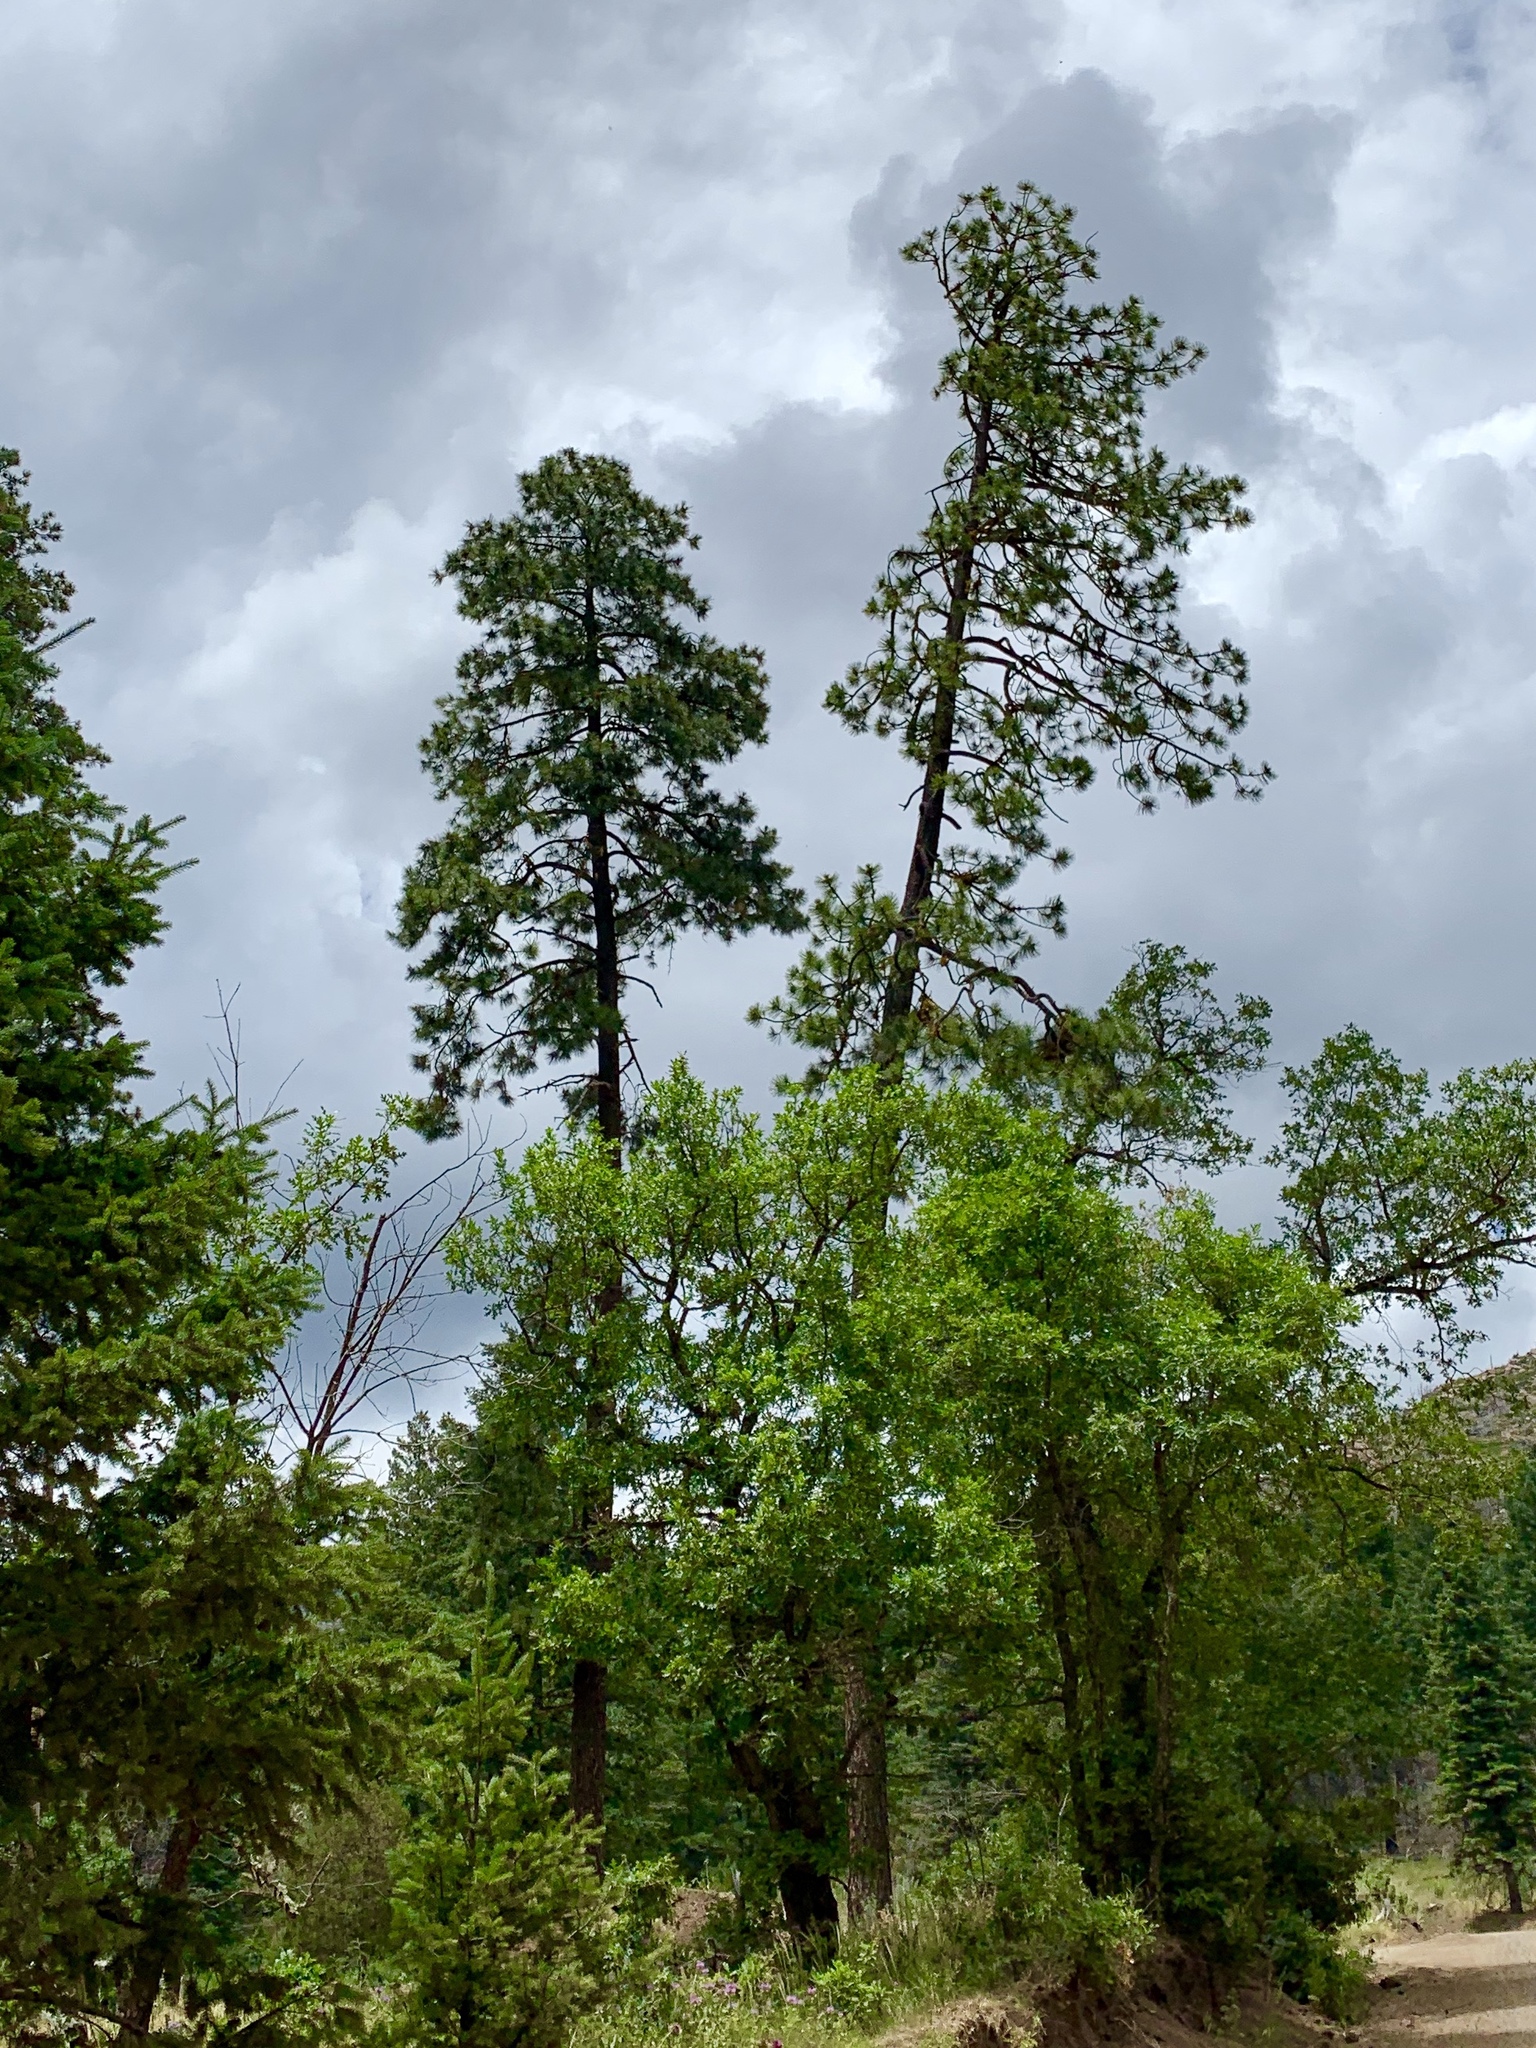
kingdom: Plantae
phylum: Tracheophyta
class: Pinopsida
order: Pinales
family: Pinaceae
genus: Pinus
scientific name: Pinus ponderosa
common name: Western yellow-pine
